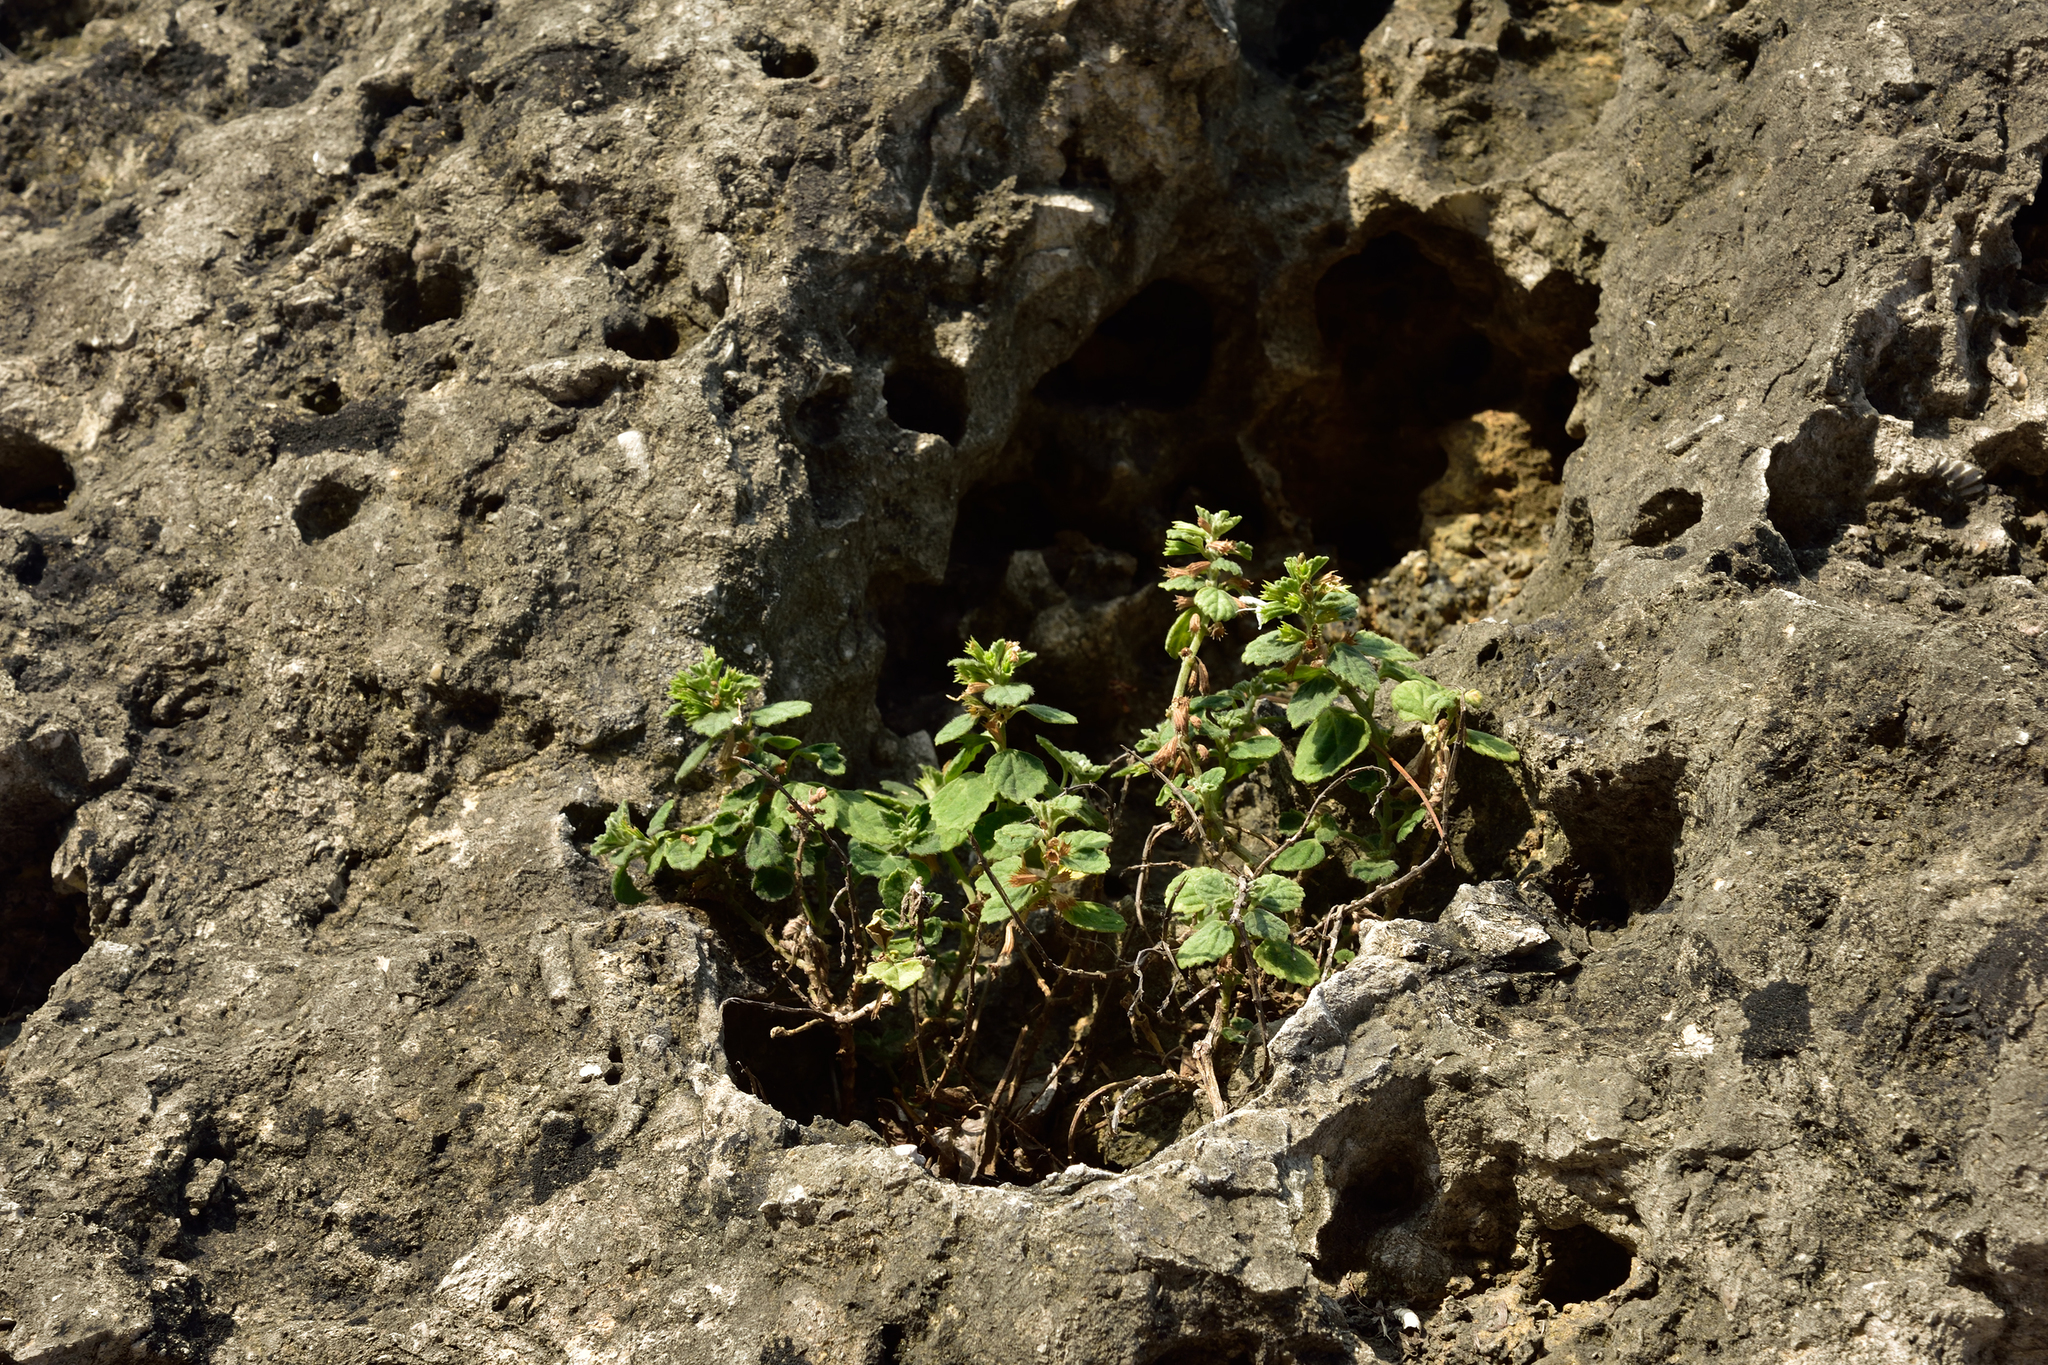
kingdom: Plantae
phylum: Tracheophyta
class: Magnoliopsida
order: Lamiales
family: Lamiaceae
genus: Leucas
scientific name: Leucas chinensis
